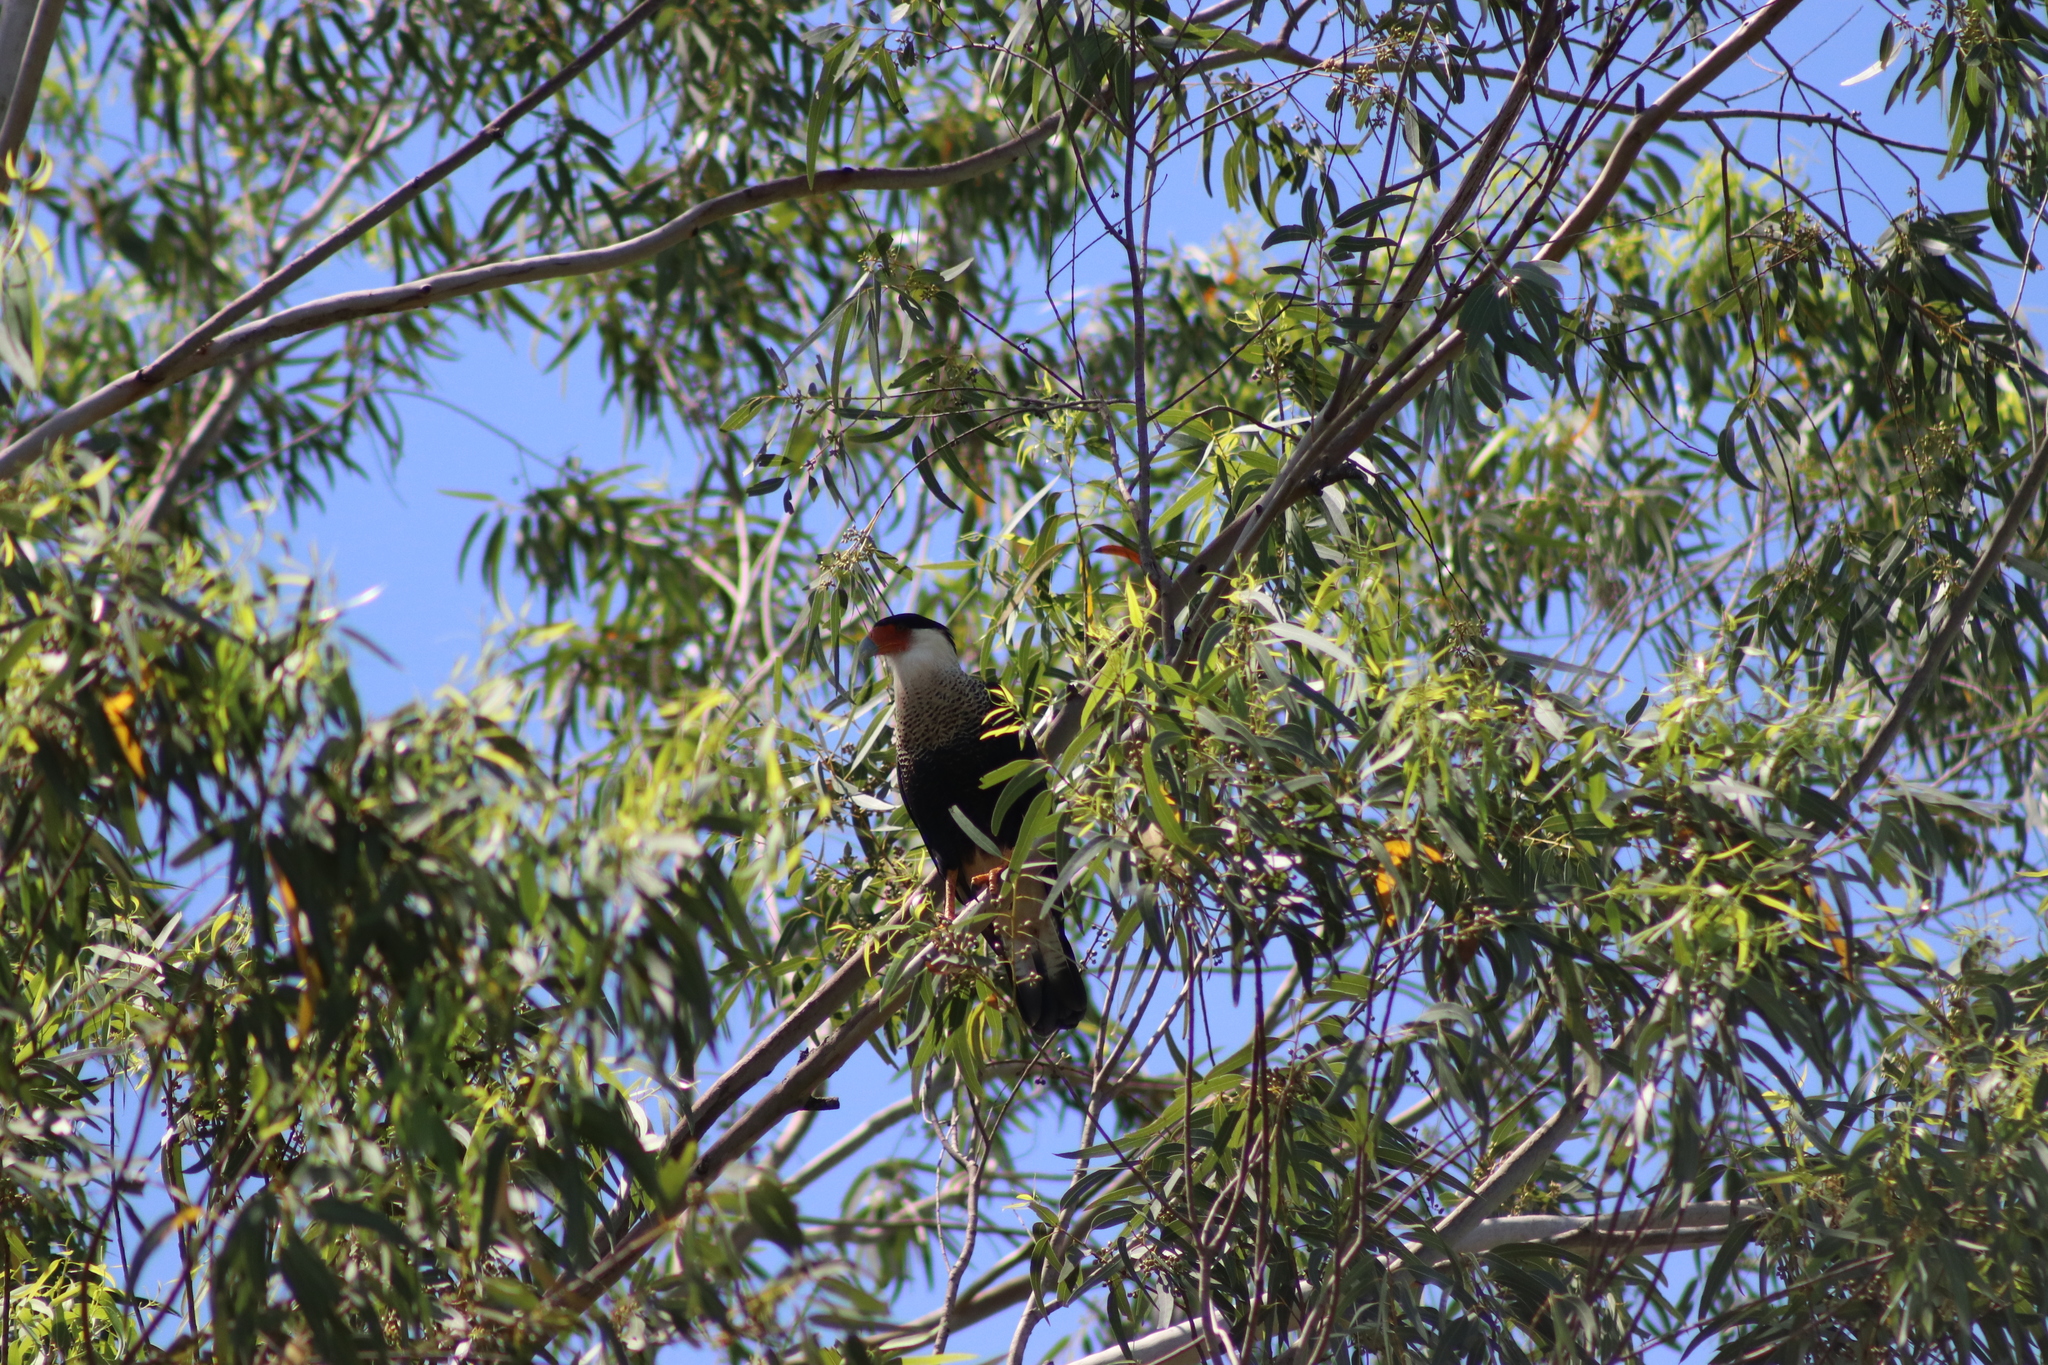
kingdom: Animalia
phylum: Chordata
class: Aves
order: Falconiformes
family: Falconidae
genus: Caracara
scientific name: Caracara plancus
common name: Southern caracara
